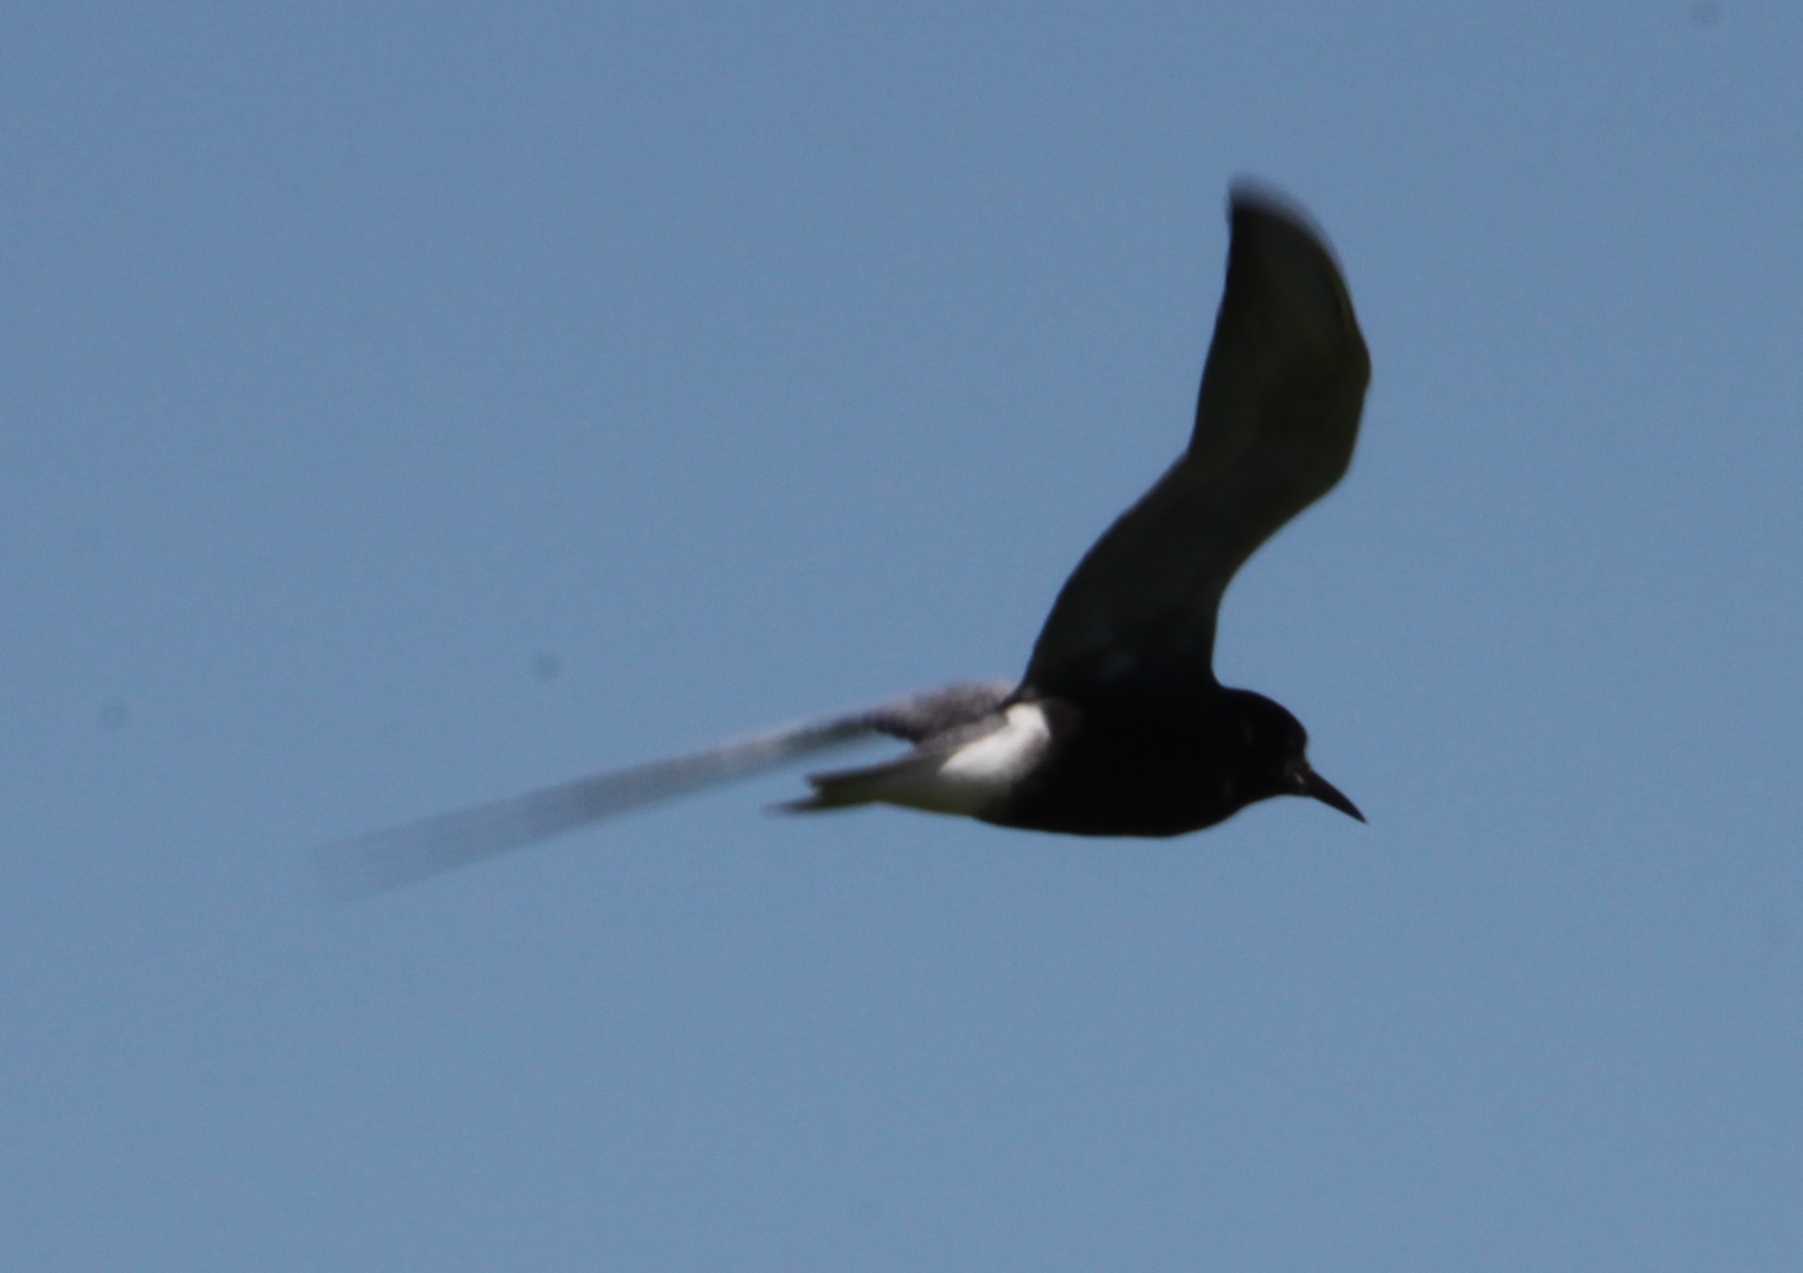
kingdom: Animalia
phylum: Chordata
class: Aves
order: Charadriiformes
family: Laridae
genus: Chlidonias
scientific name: Chlidonias niger
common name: Black tern
